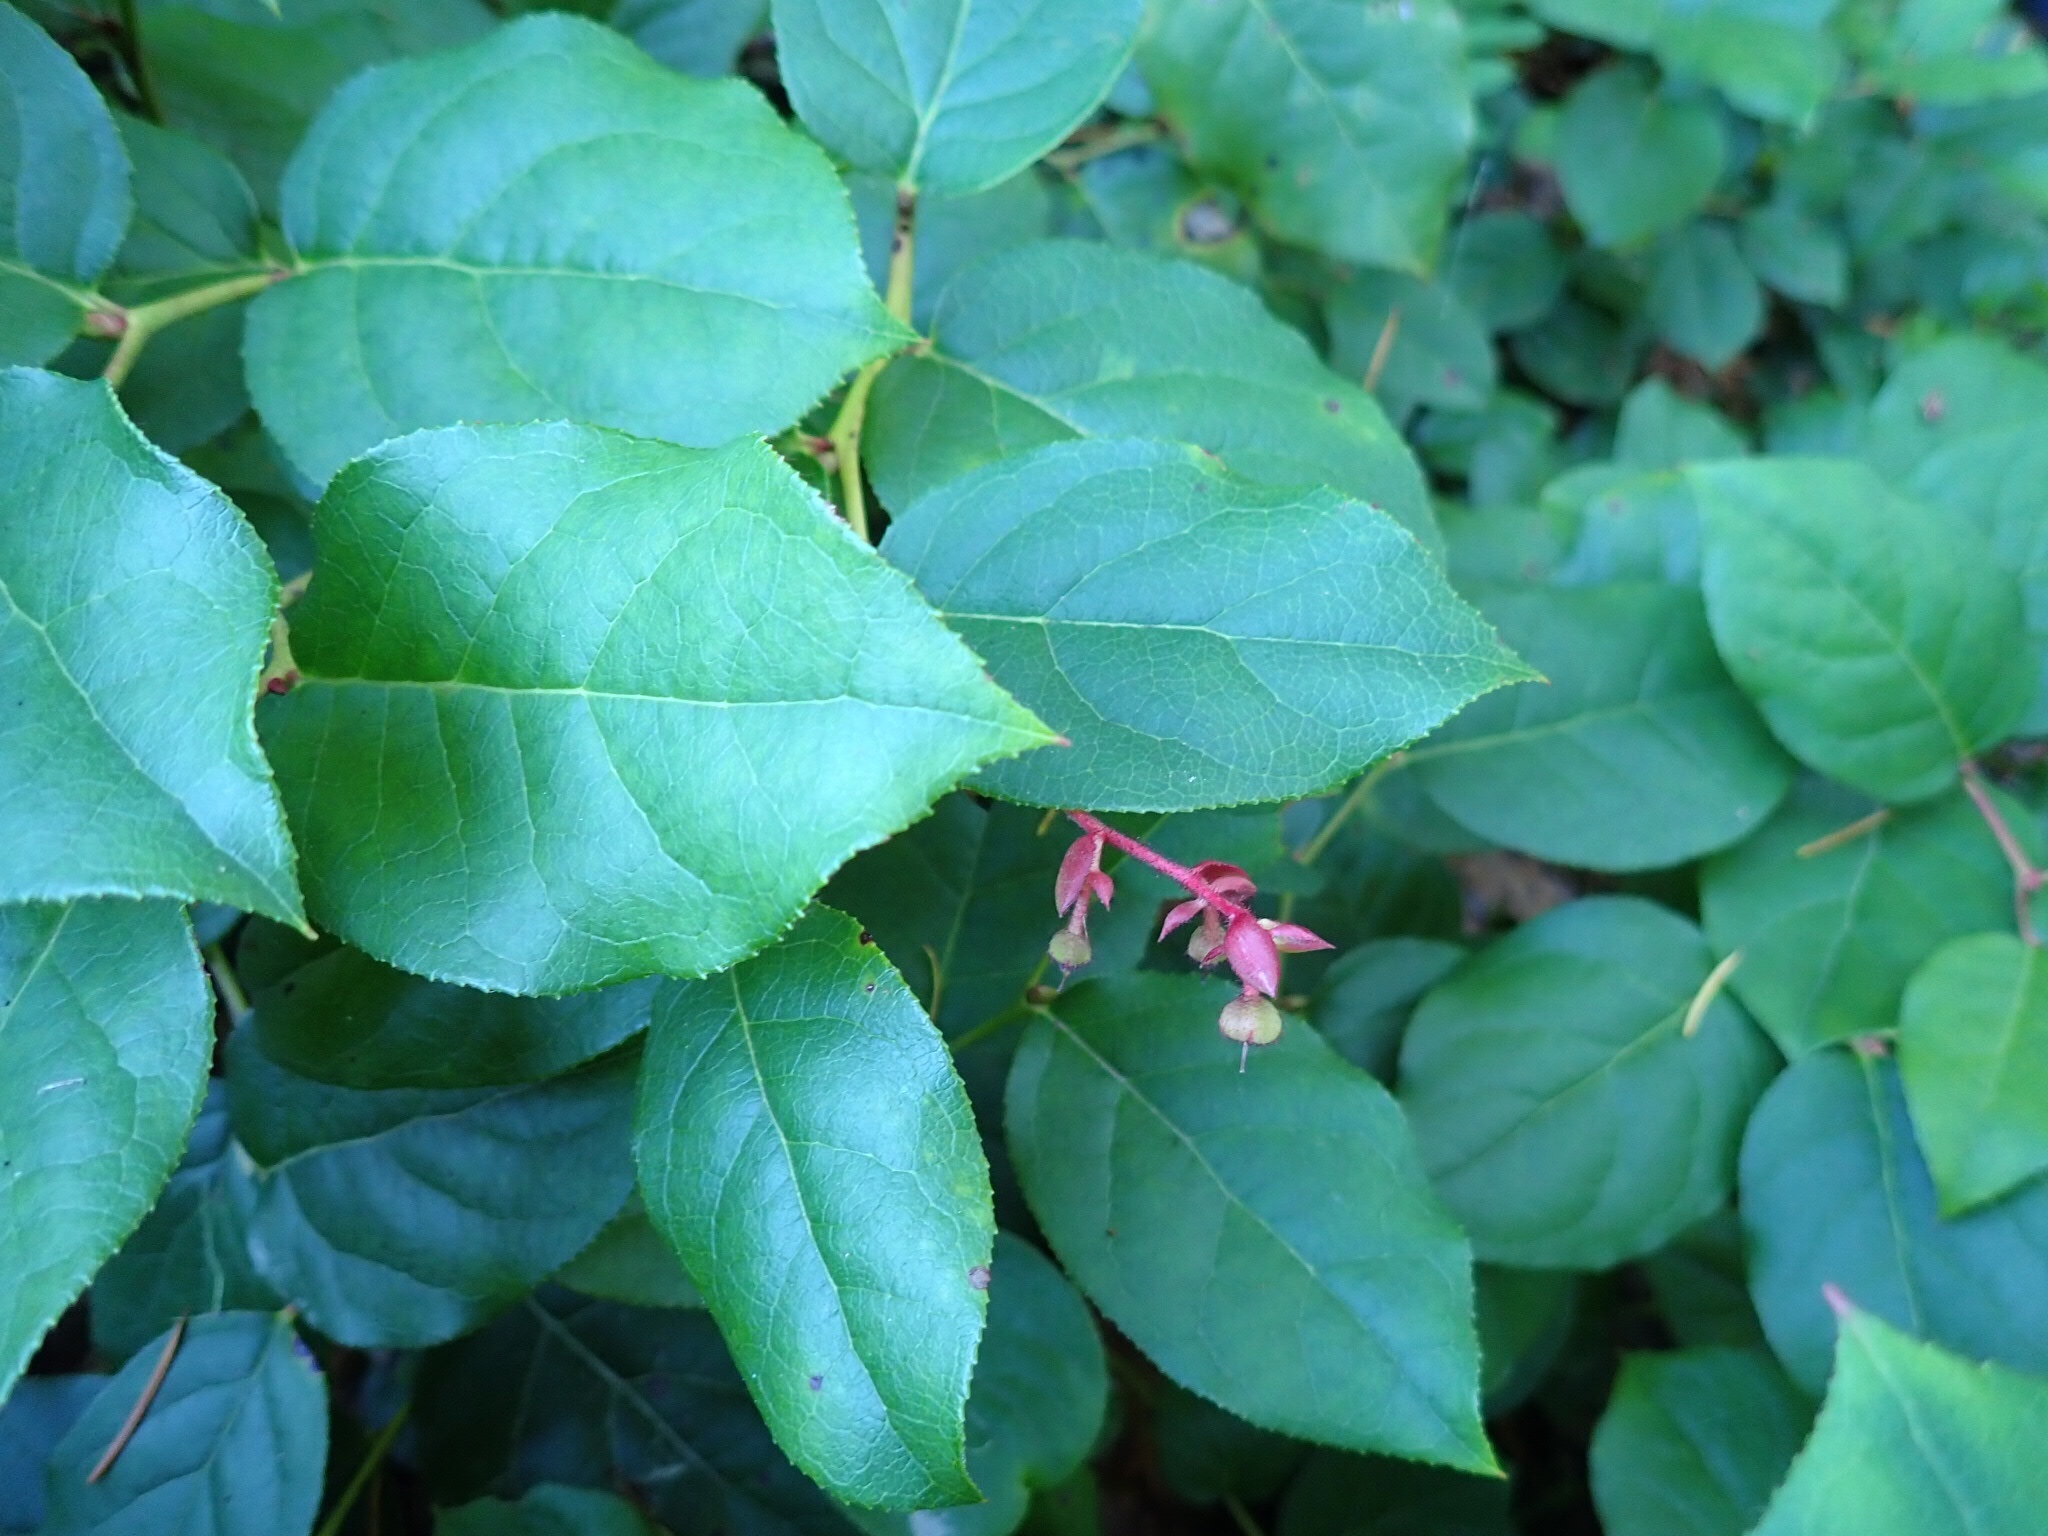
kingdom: Plantae
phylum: Tracheophyta
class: Magnoliopsida
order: Ericales
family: Ericaceae
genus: Gaultheria
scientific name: Gaultheria shallon
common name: Shallon
